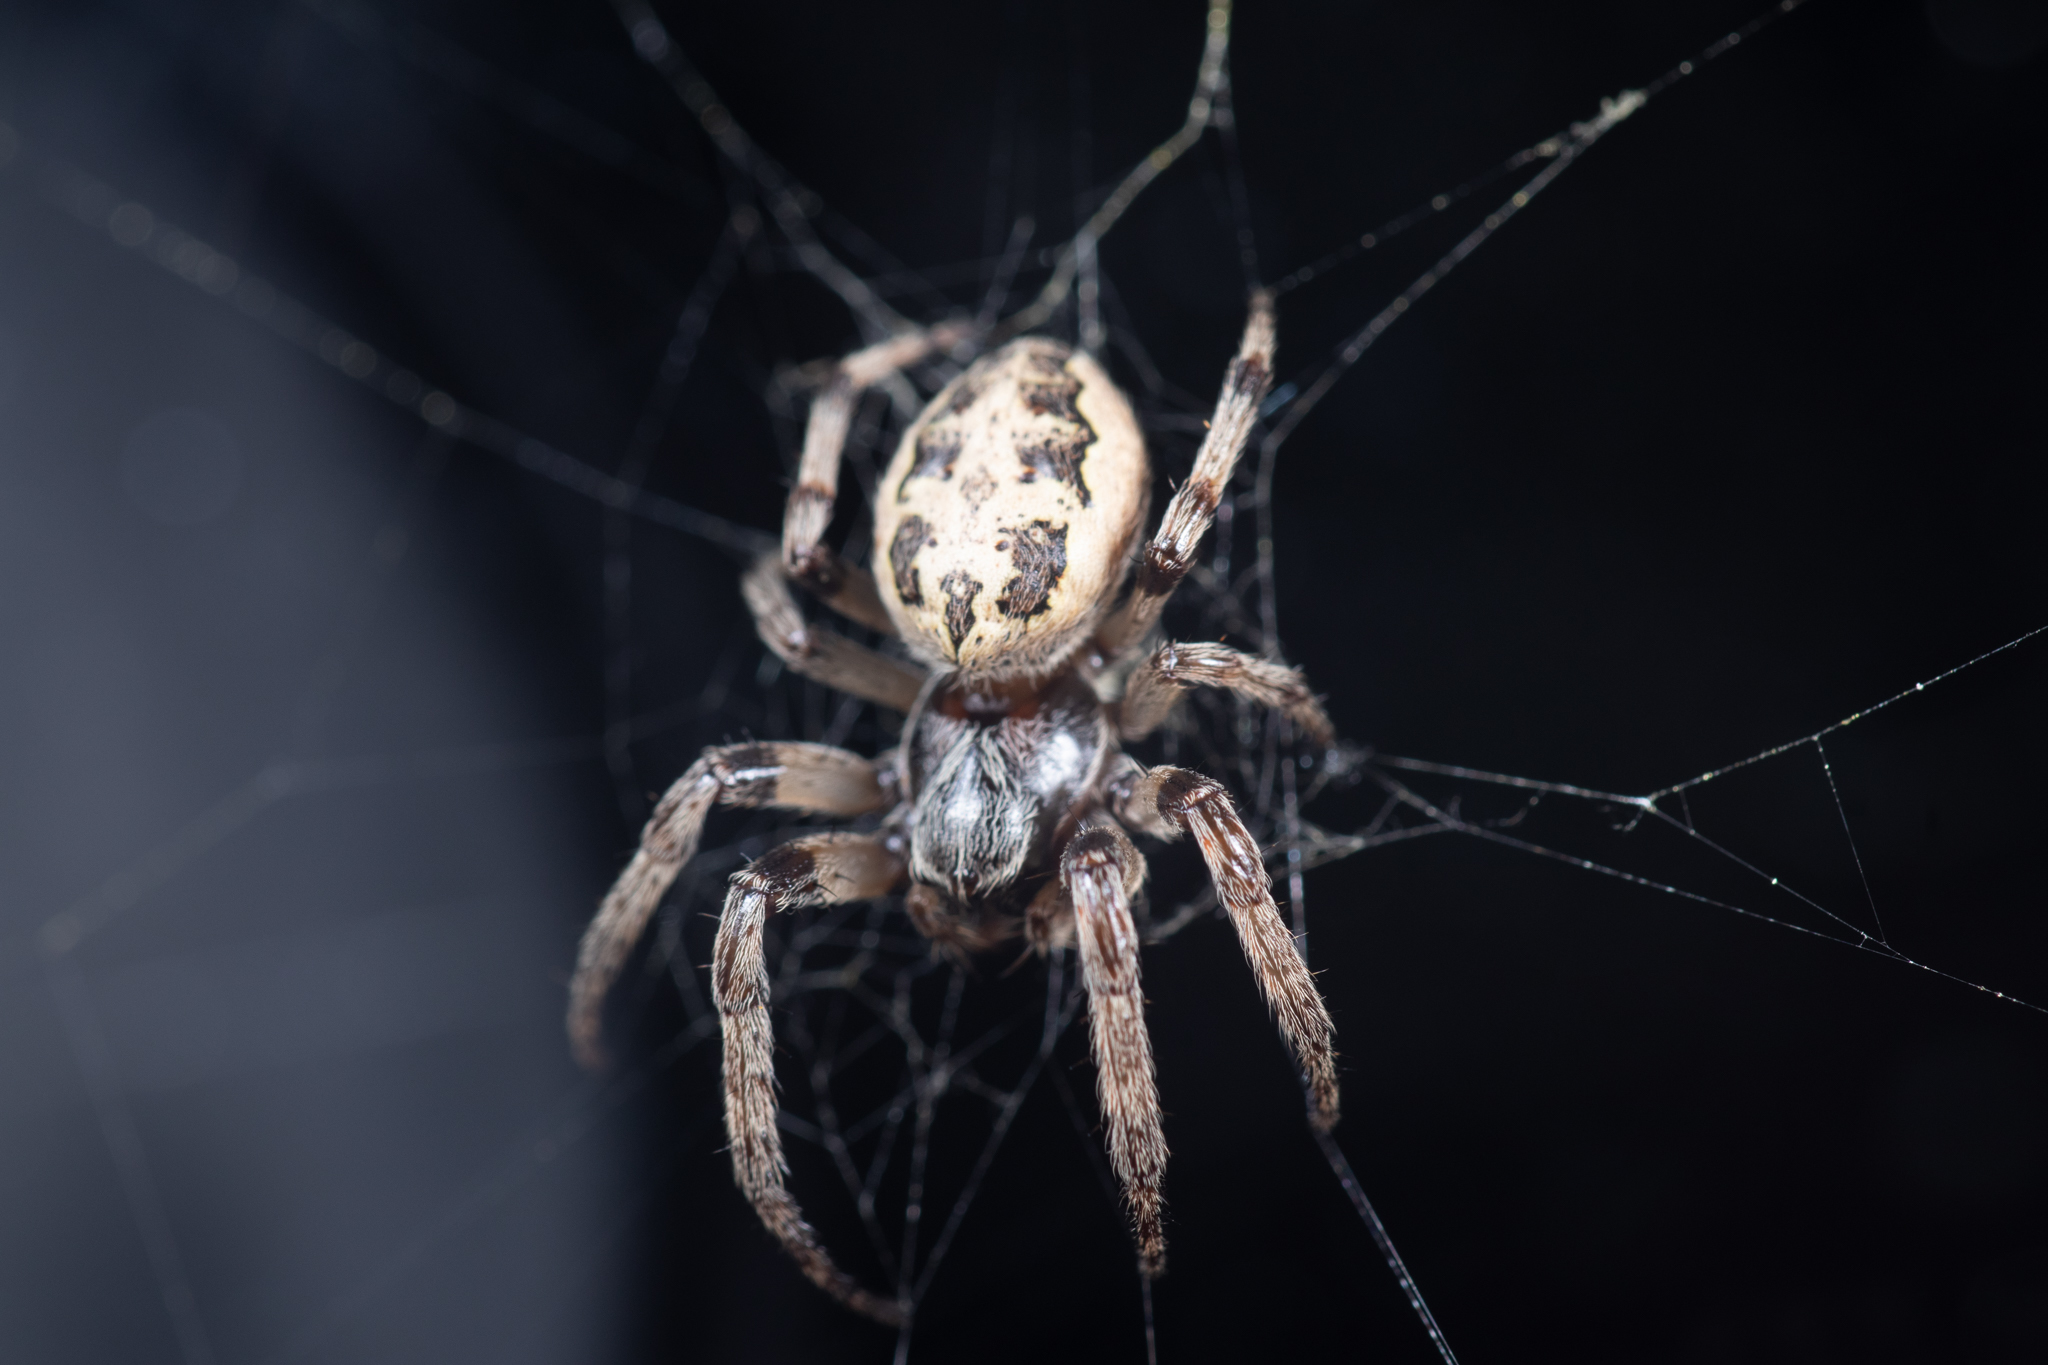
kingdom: Animalia
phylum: Arthropoda
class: Arachnida
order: Araneae
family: Araneidae
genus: Larinioides
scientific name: Larinioides cornutus
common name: Furrow orbweaver
